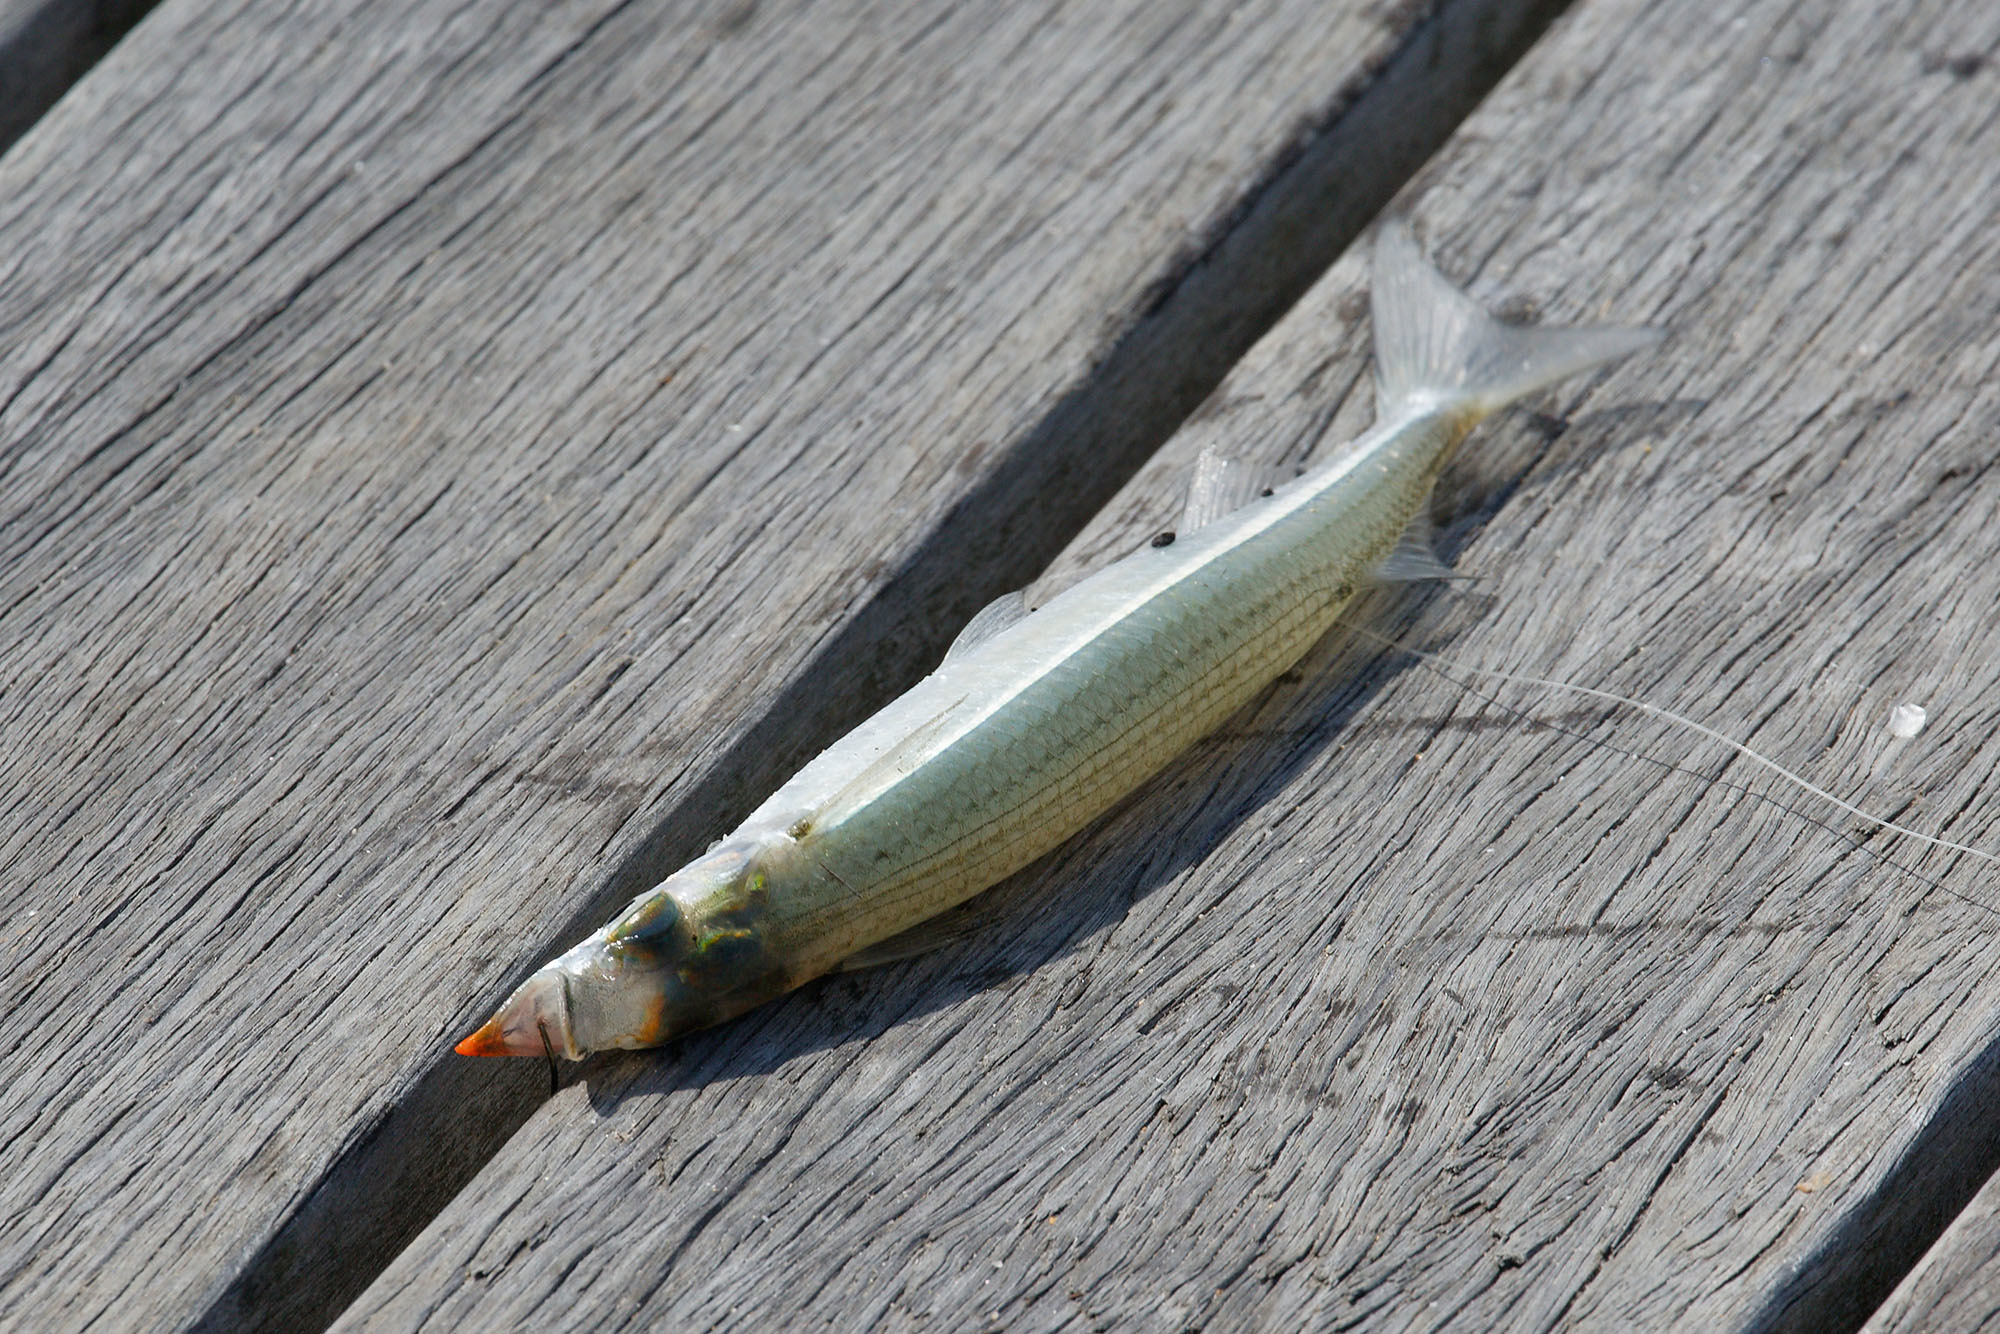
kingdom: Animalia
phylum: Chordata
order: Beloniformes
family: Hemiramphidae
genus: Arrhamphus
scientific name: Arrhamphus sclerolepis
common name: Snub-nosed garfish
